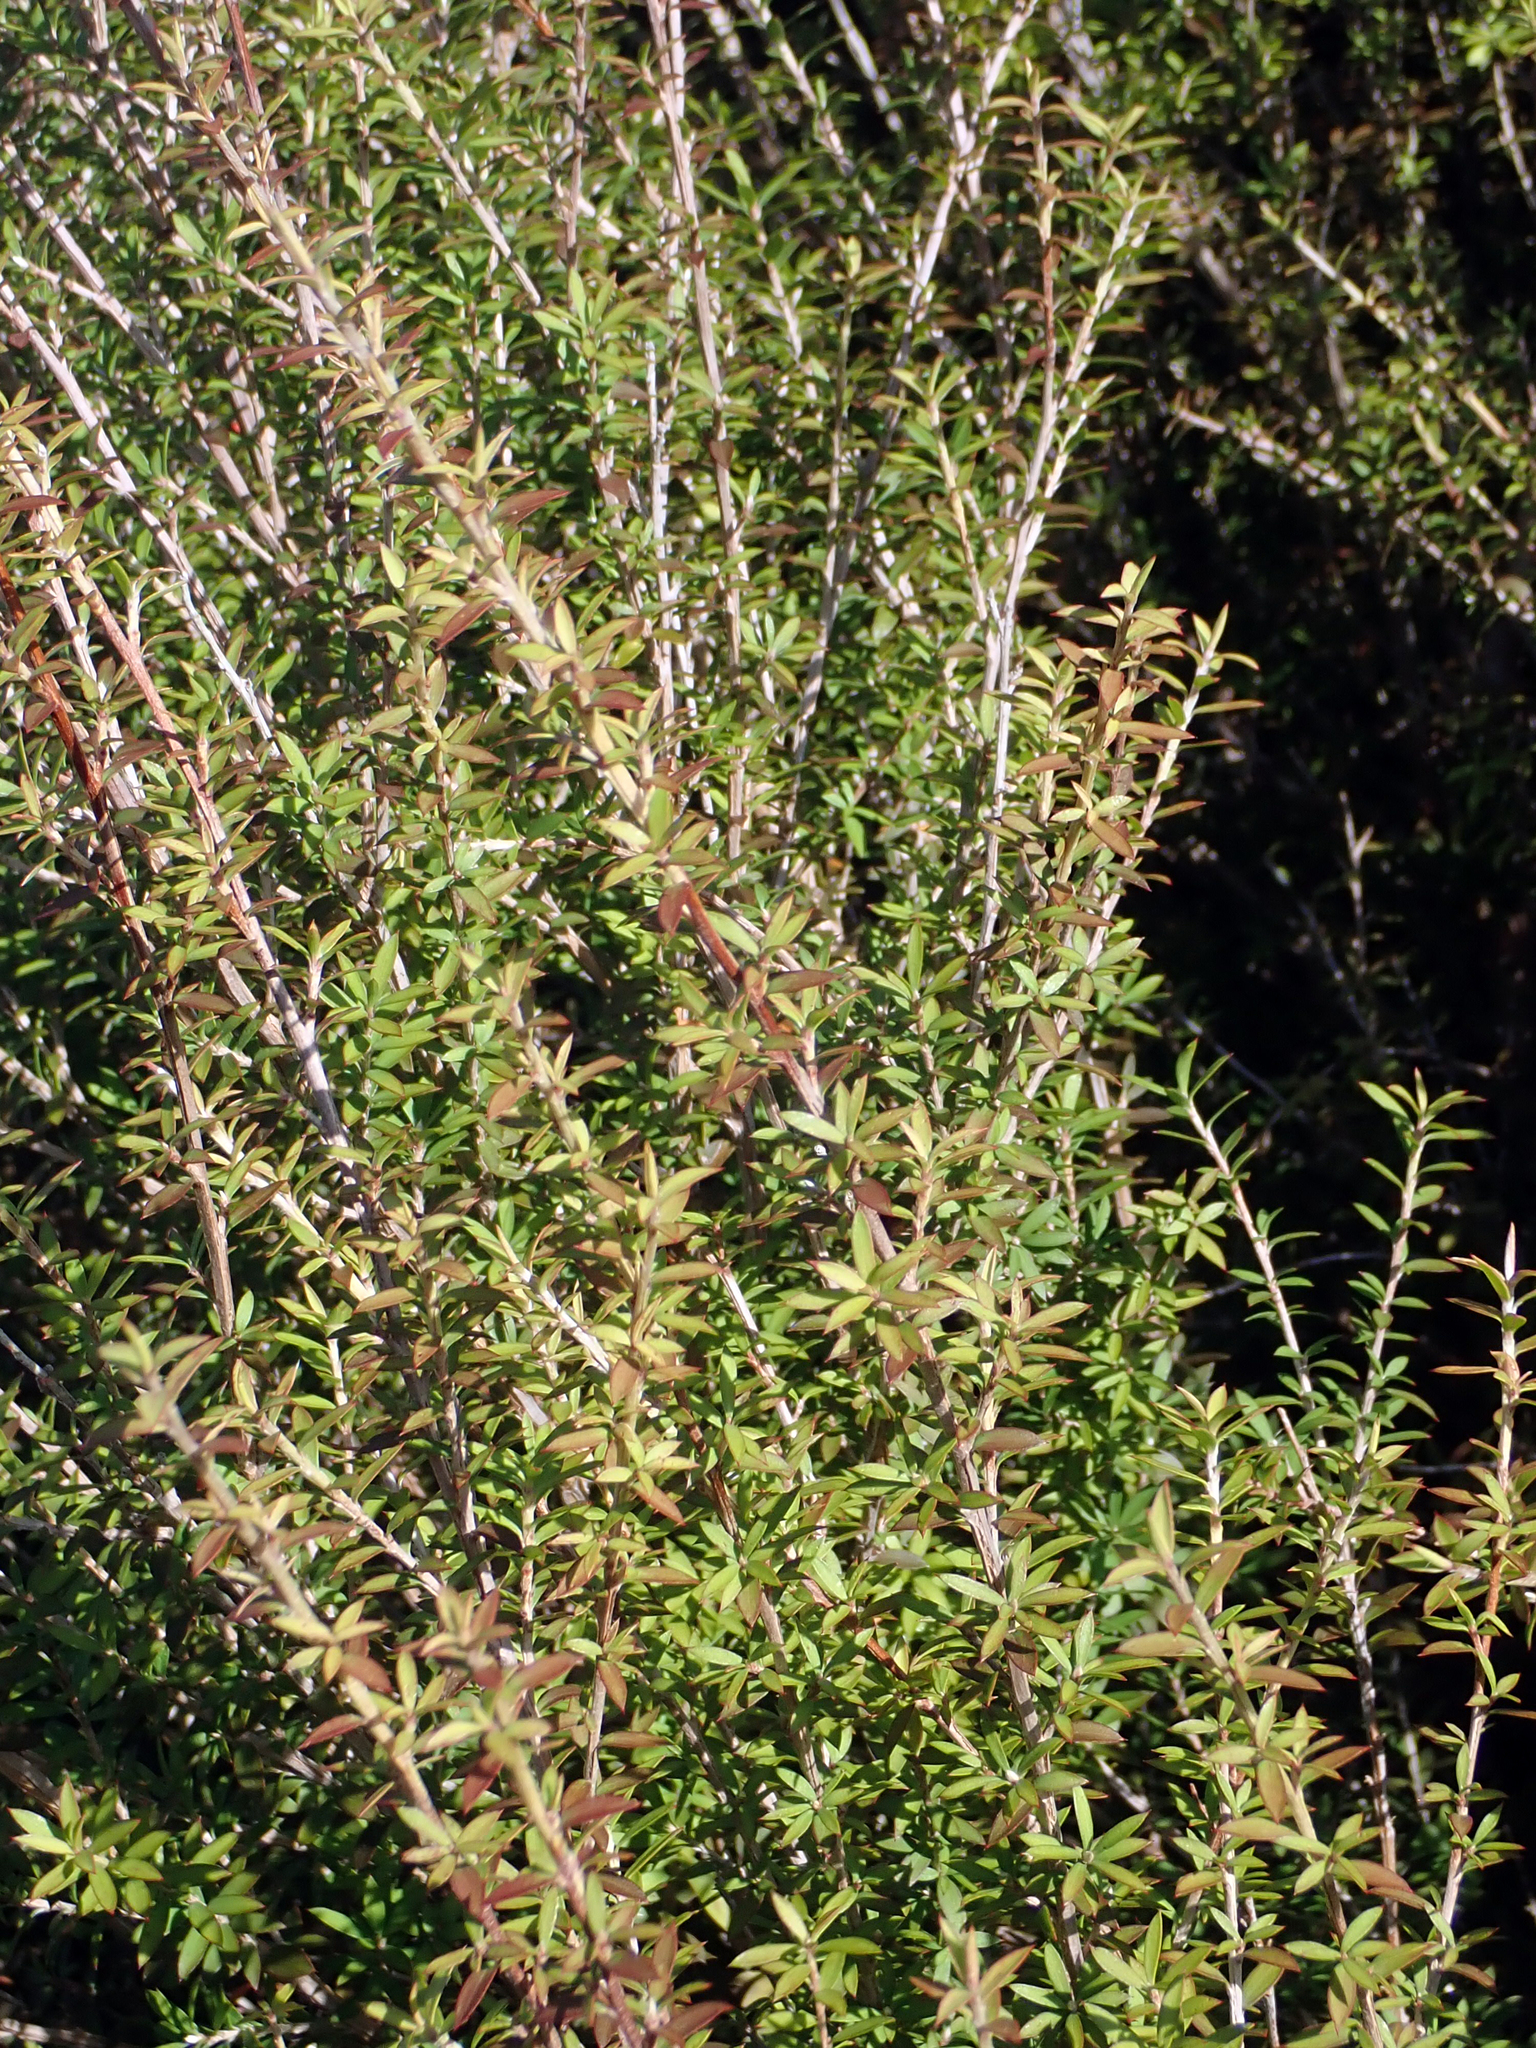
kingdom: Plantae
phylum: Tracheophyta
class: Magnoliopsida
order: Myrtales
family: Myrtaceae
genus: Leptospermum
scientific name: Leptospermum scoparium
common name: Broom tea-tree
